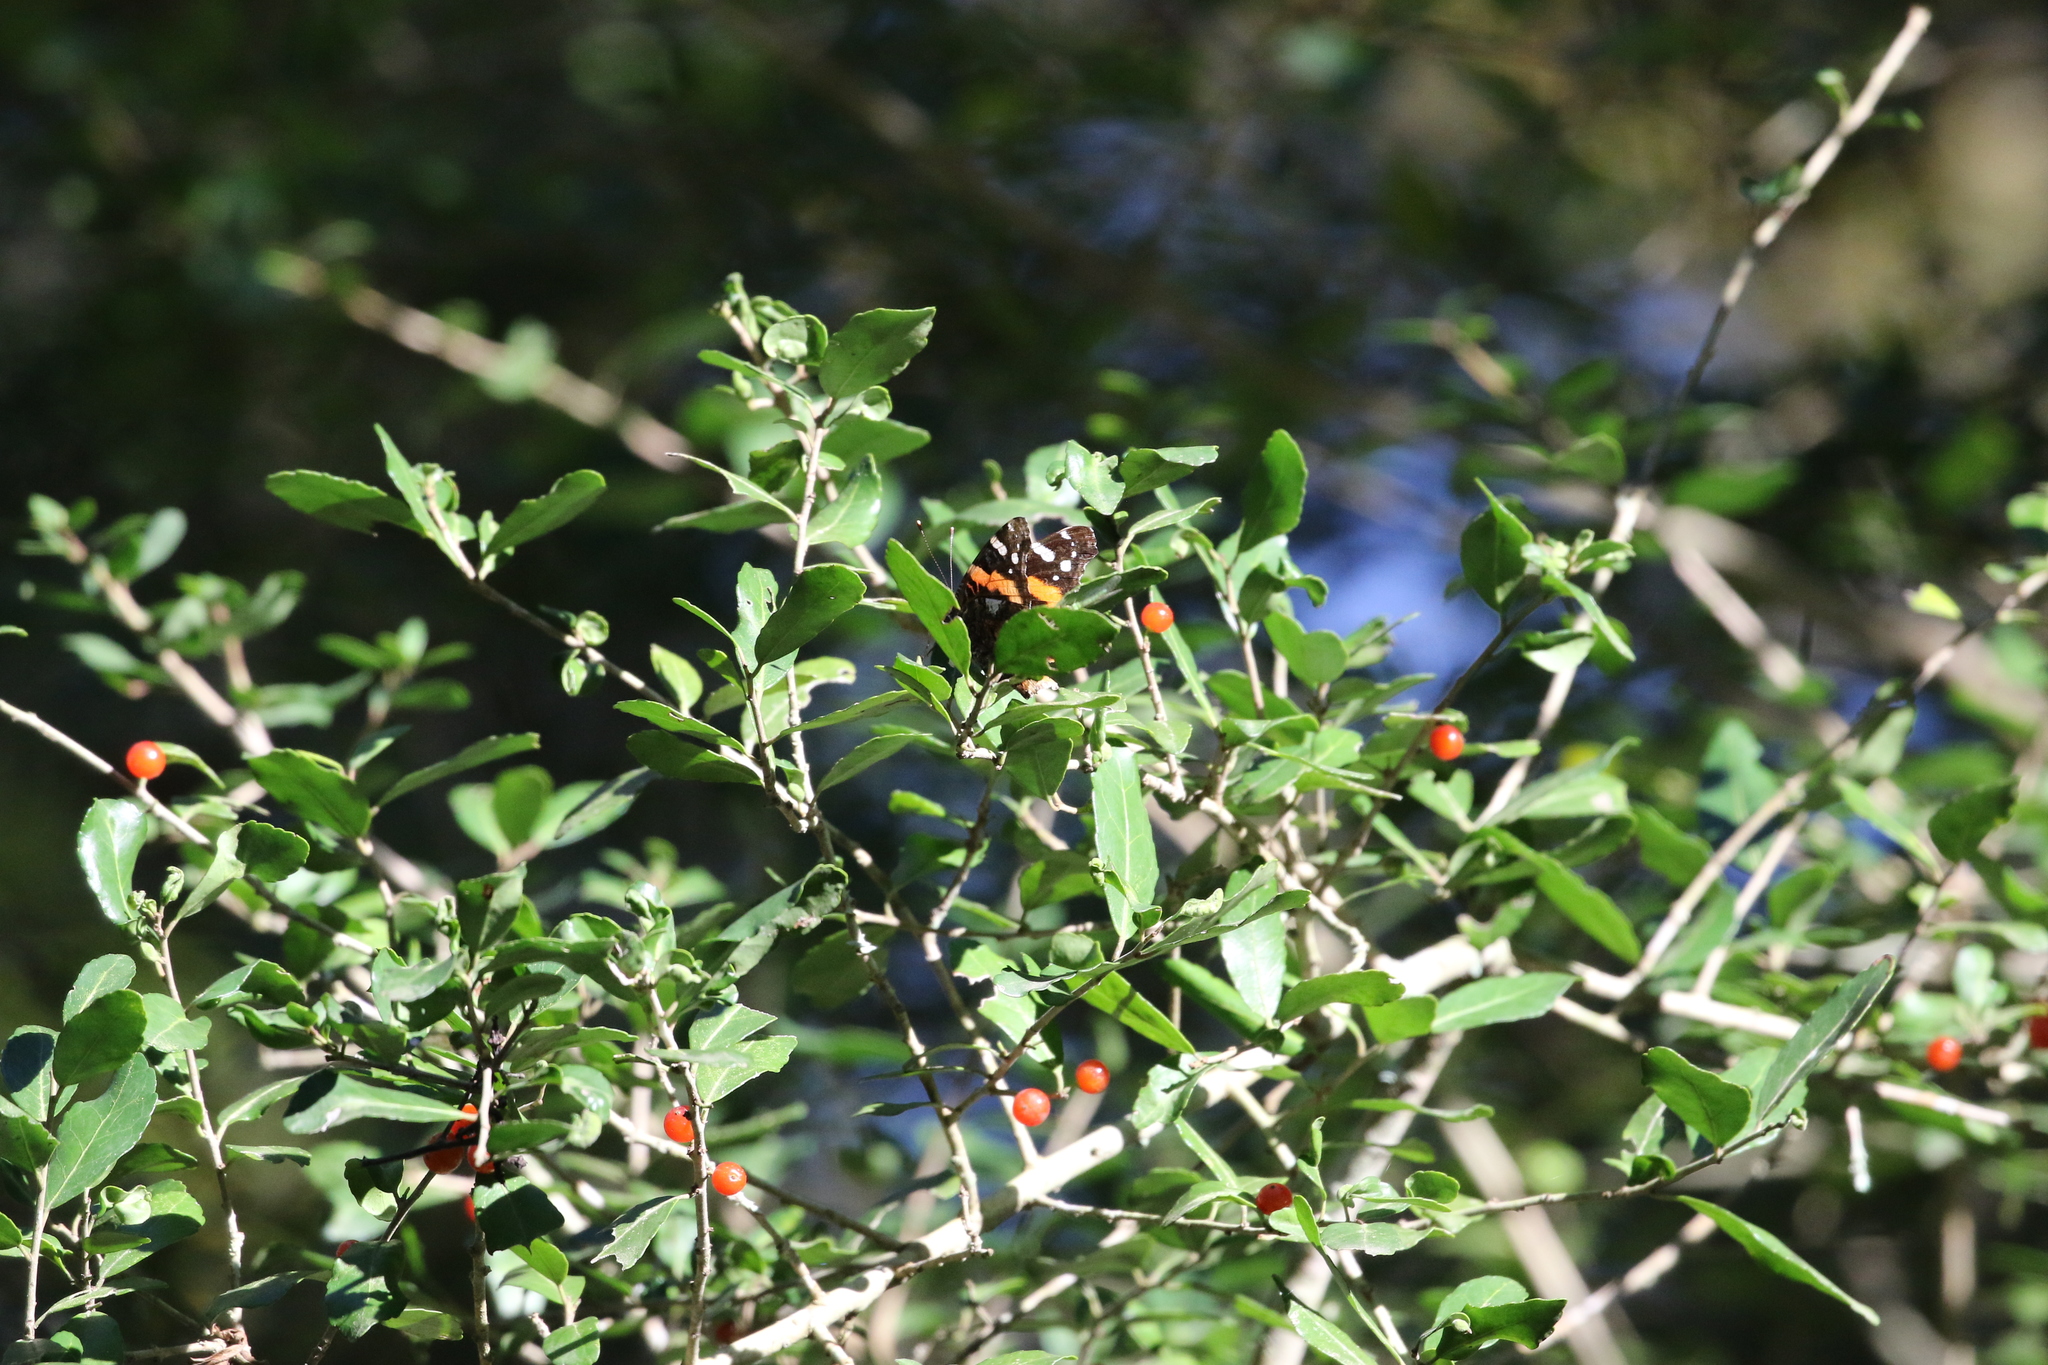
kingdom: Animalia
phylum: Arthropoda
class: Insecta
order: Lepidoptera
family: Nymphalidae
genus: Vanessa
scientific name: Vanessa atalanta
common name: Red admiral
